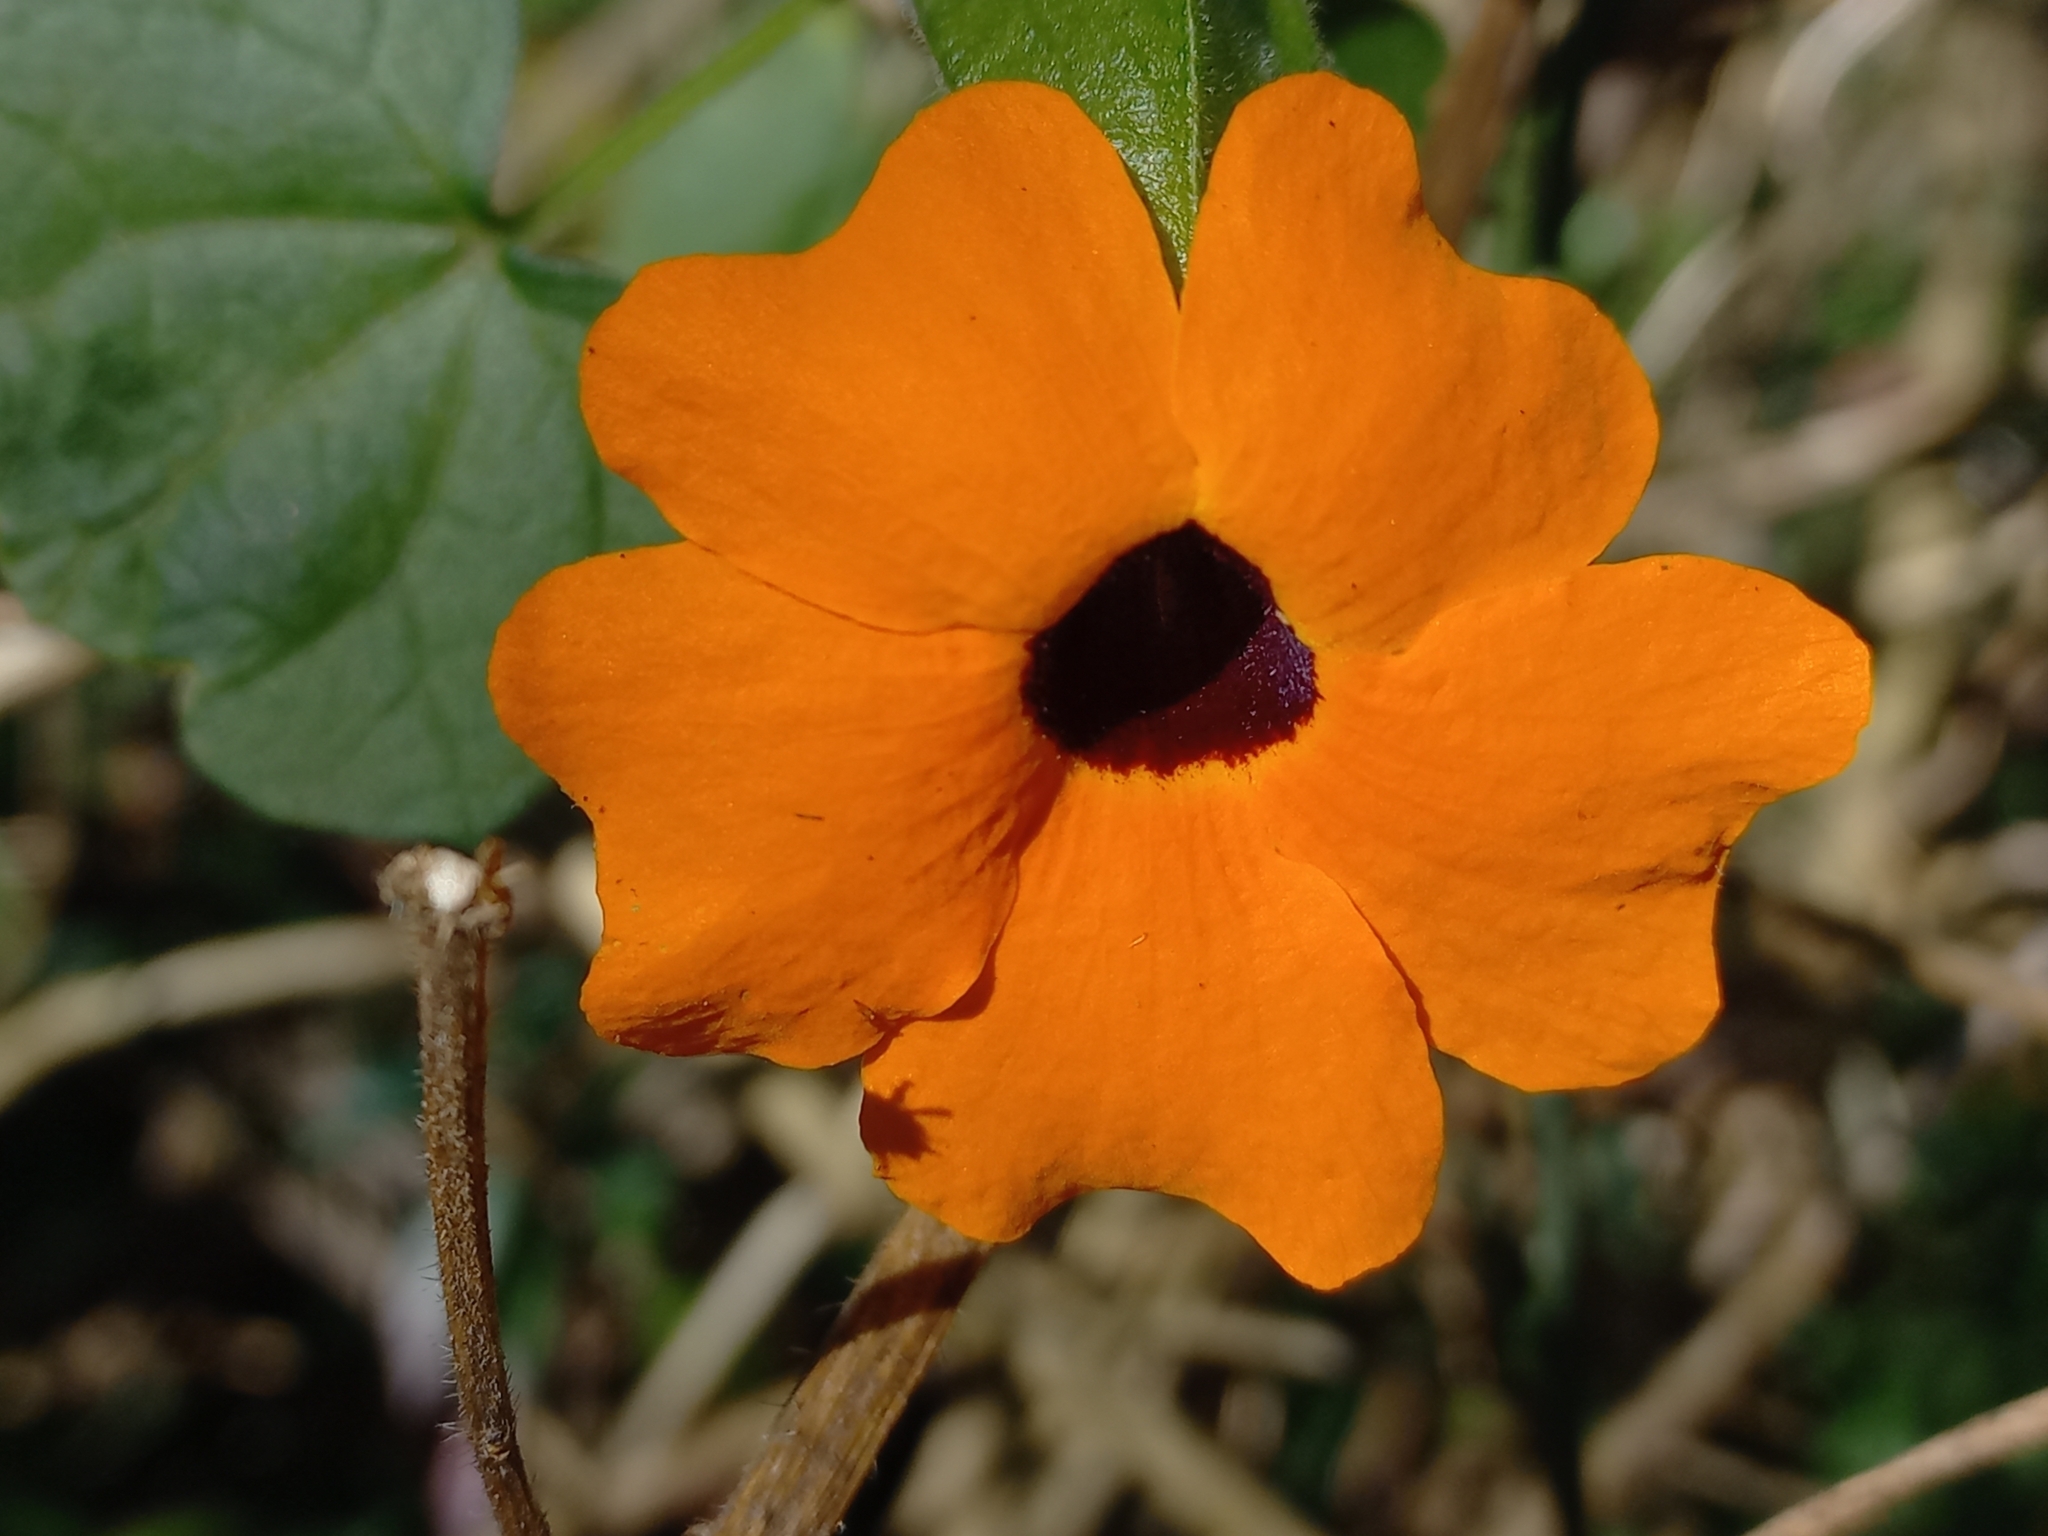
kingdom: Plantae
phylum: Tracheophyta
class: Magnoliopsida
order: Lamiales
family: Acanthaceae
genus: Thunbergia
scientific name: Thunbergia alata
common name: Blackeyed susan vine
